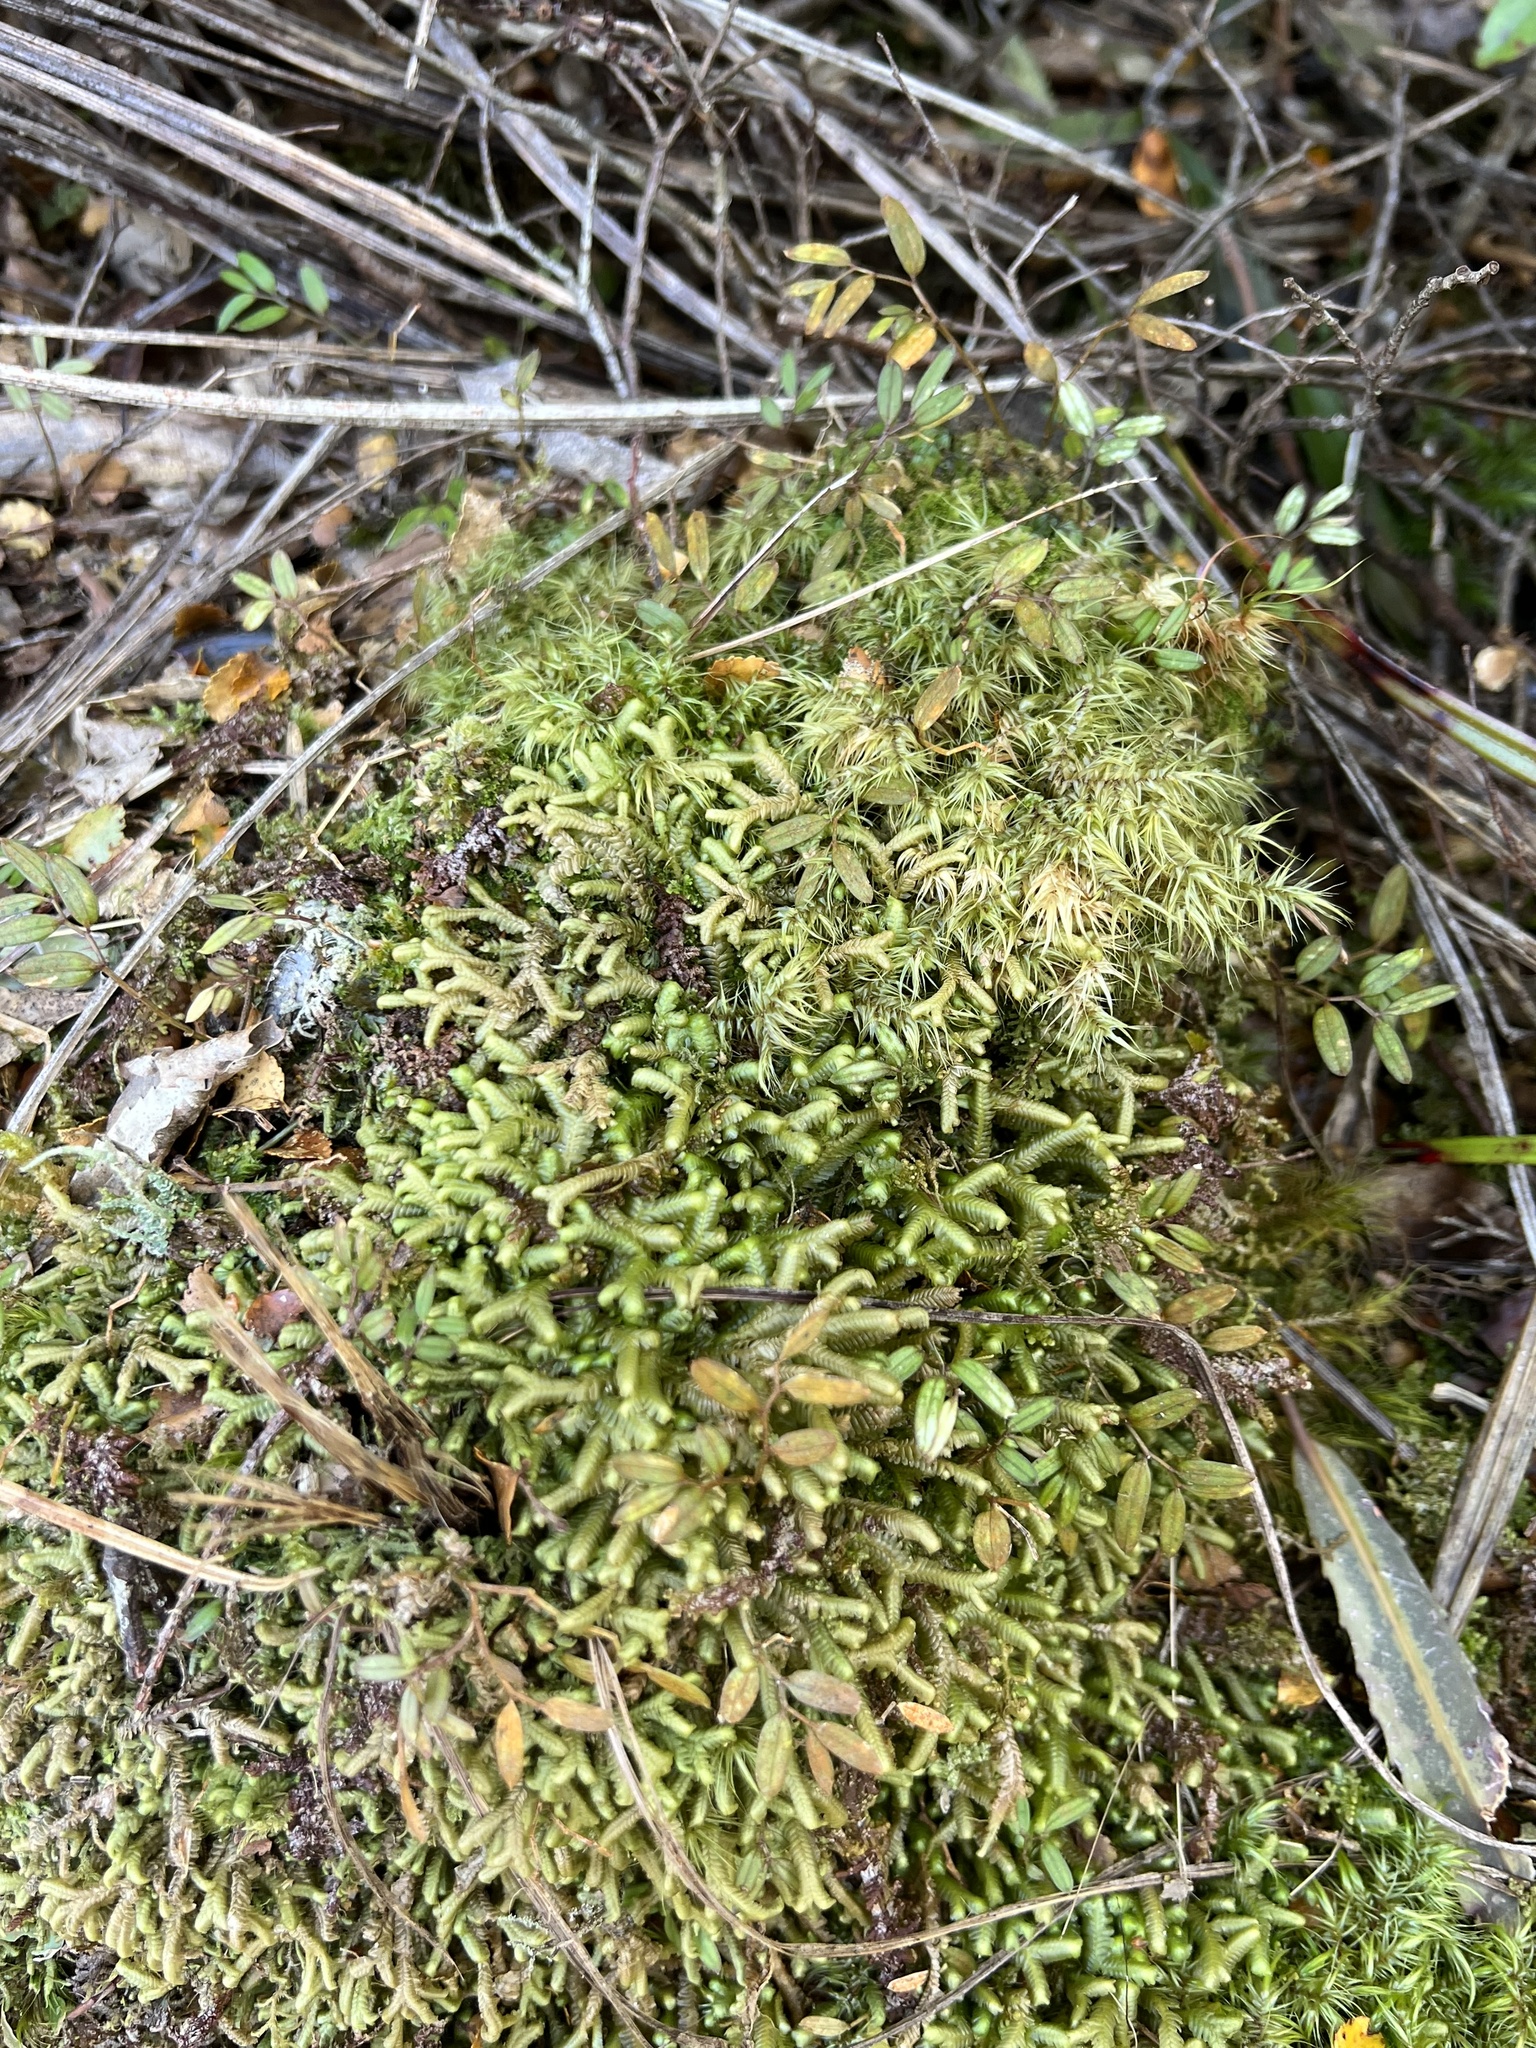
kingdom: Plantae
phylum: Tracheophyta
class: Liliopsida
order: Liliales
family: Alstroemeriaceae
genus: Luzuriaga
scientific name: Luzuriaga parviflora
